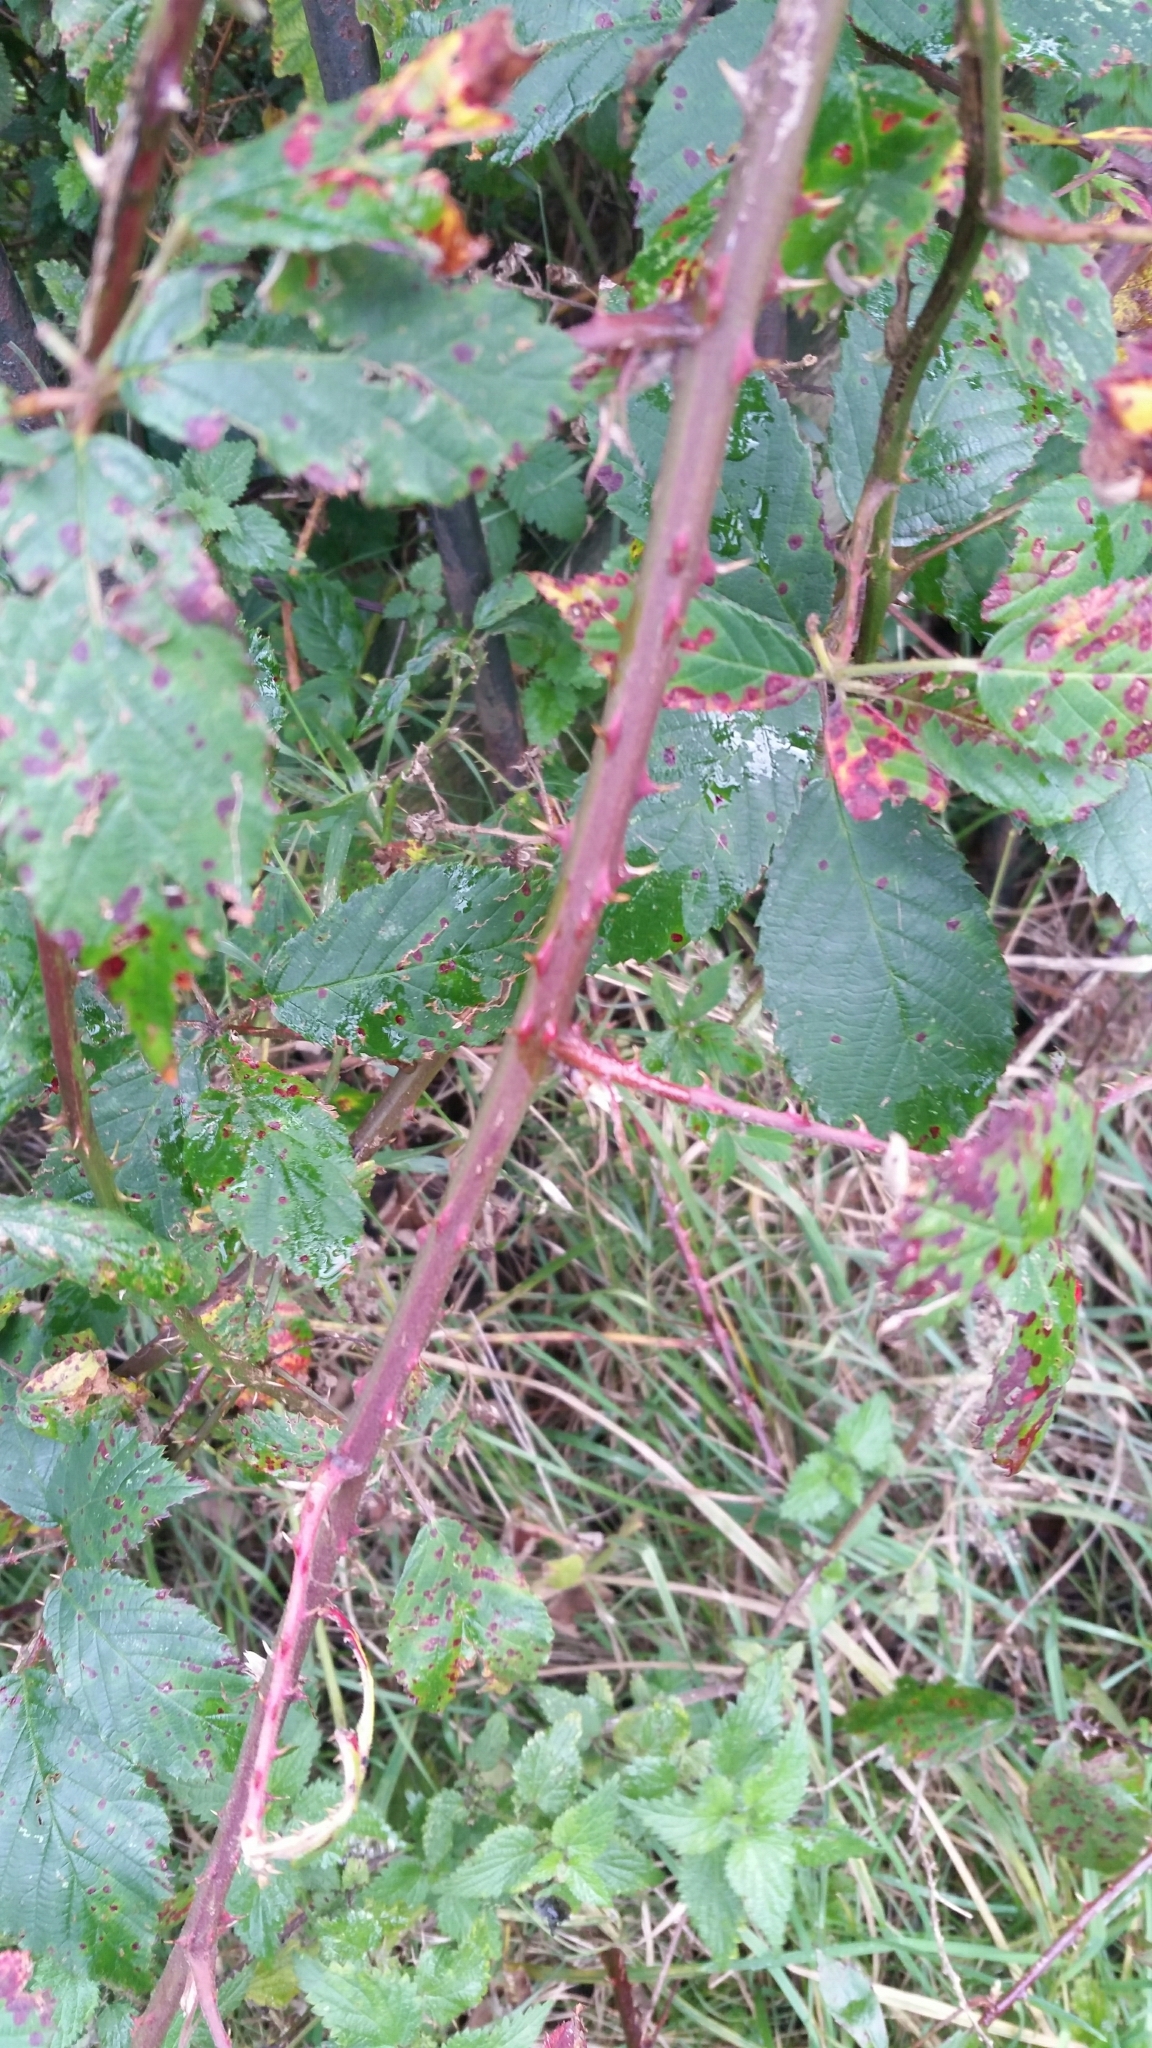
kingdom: Plantae
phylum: Tracheophyta
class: Magnoliopsida
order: Rosales
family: Rosaceae
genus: Rubus
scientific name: Rubus lindleyanus
